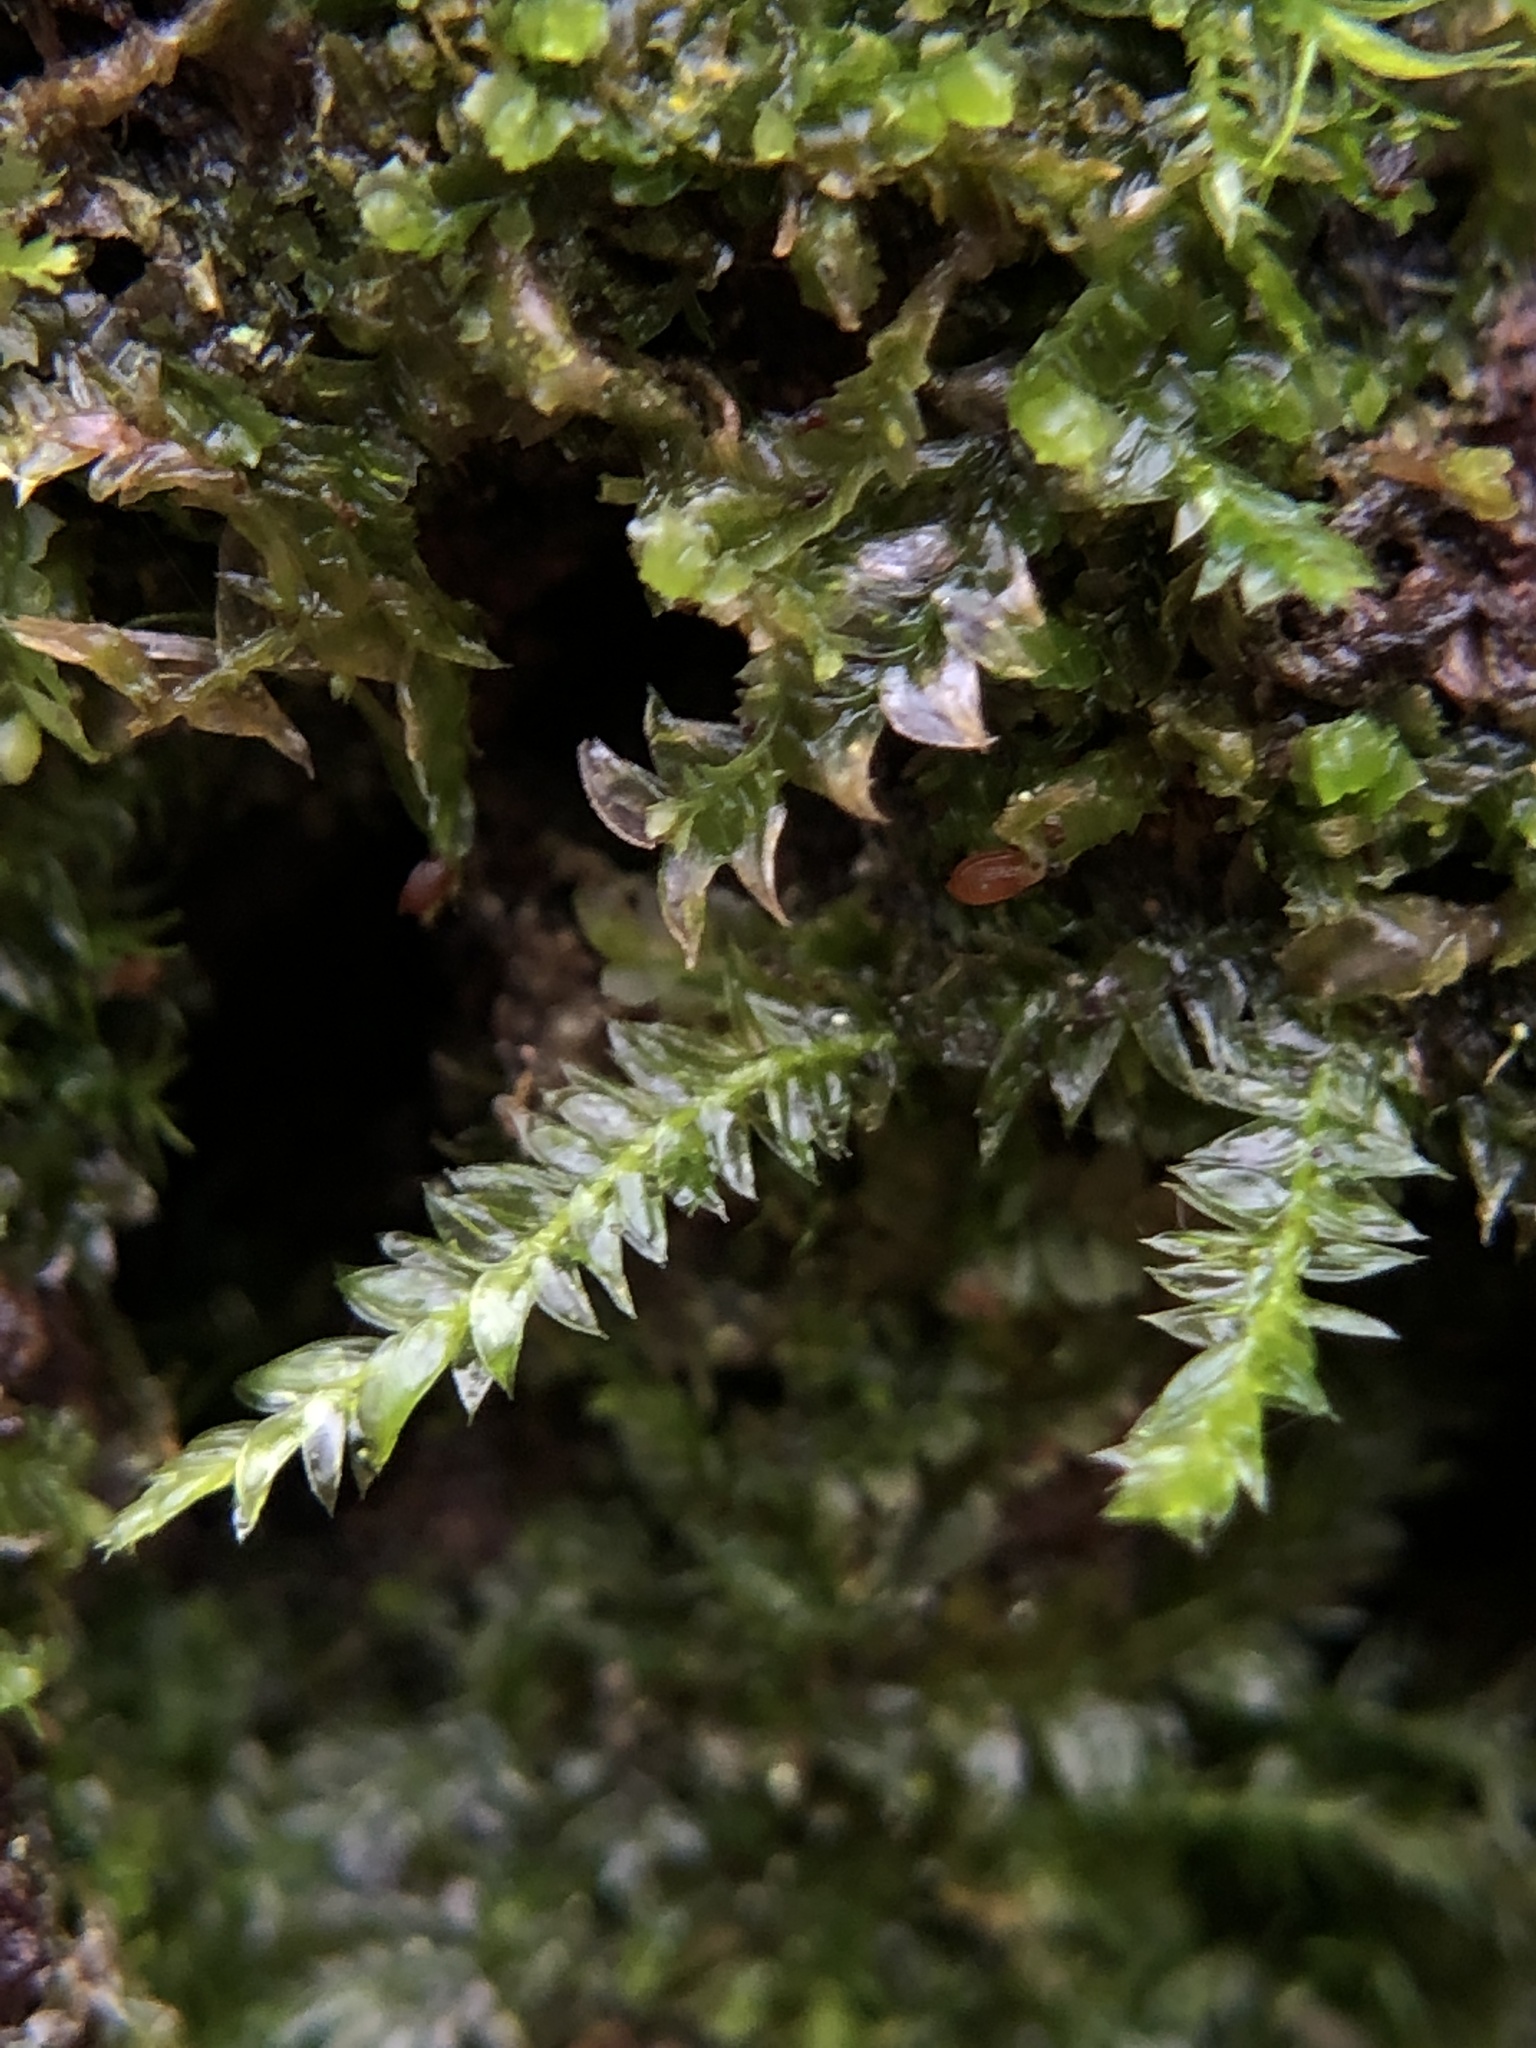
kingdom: Plantae
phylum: Bryophyta
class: Bryopsida
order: Hypnales
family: Plagiotheciaceae
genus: Plagiothecium
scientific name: Plagiothecium succulentum
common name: Juicy silk-moss
